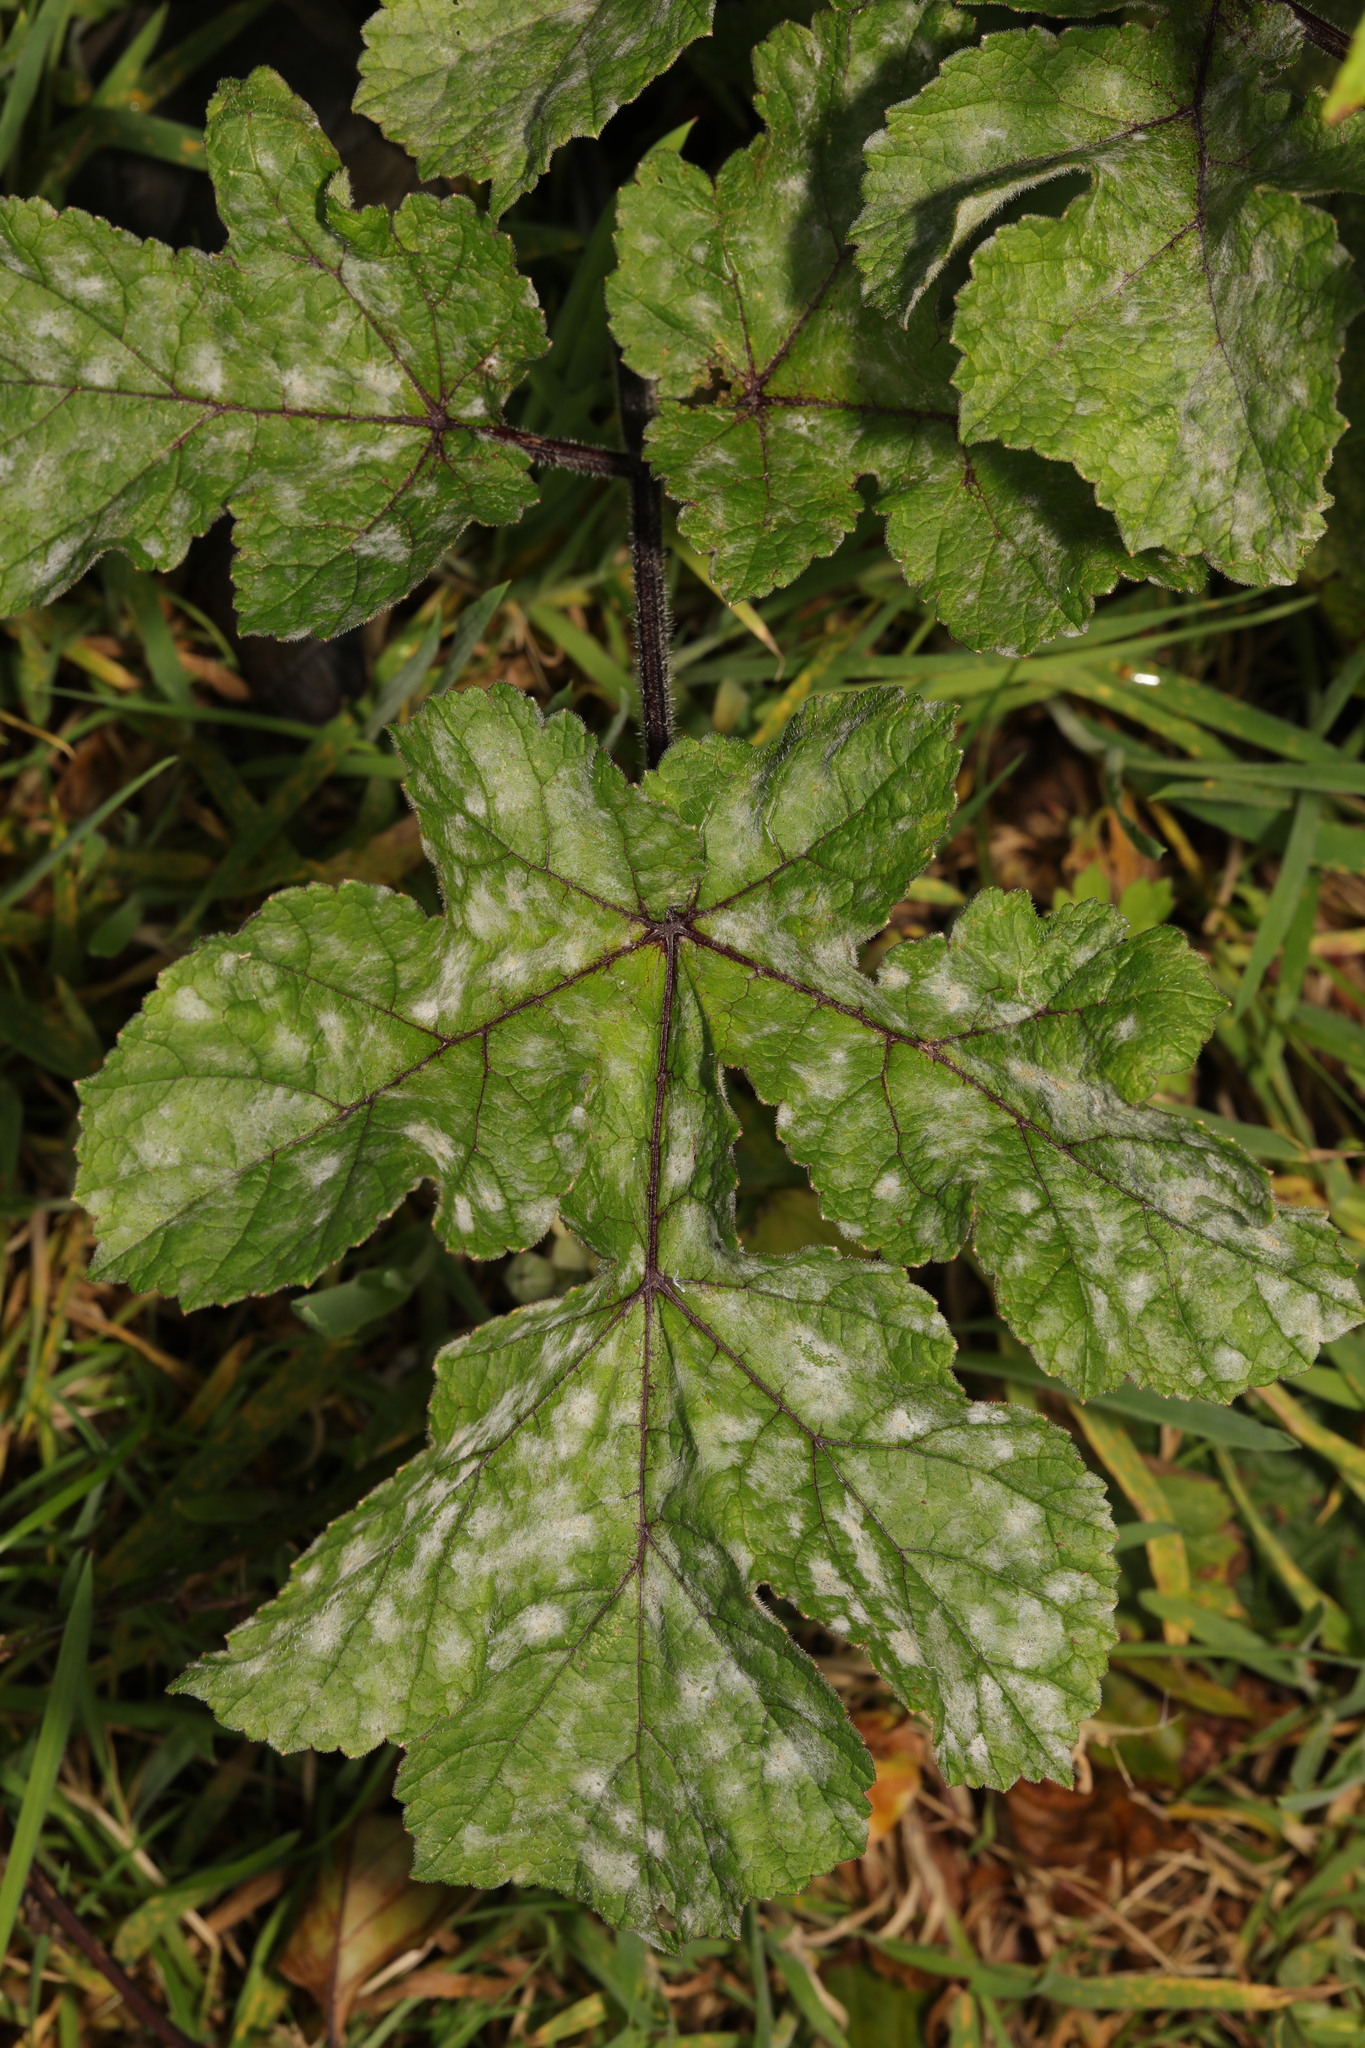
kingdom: Fungi
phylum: Ascomycota
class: Leotiomycetes
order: Helotiales
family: Erysiphaceae
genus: Erysiphe
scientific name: Erysiphe heraclei
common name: Umbellifer mildew
